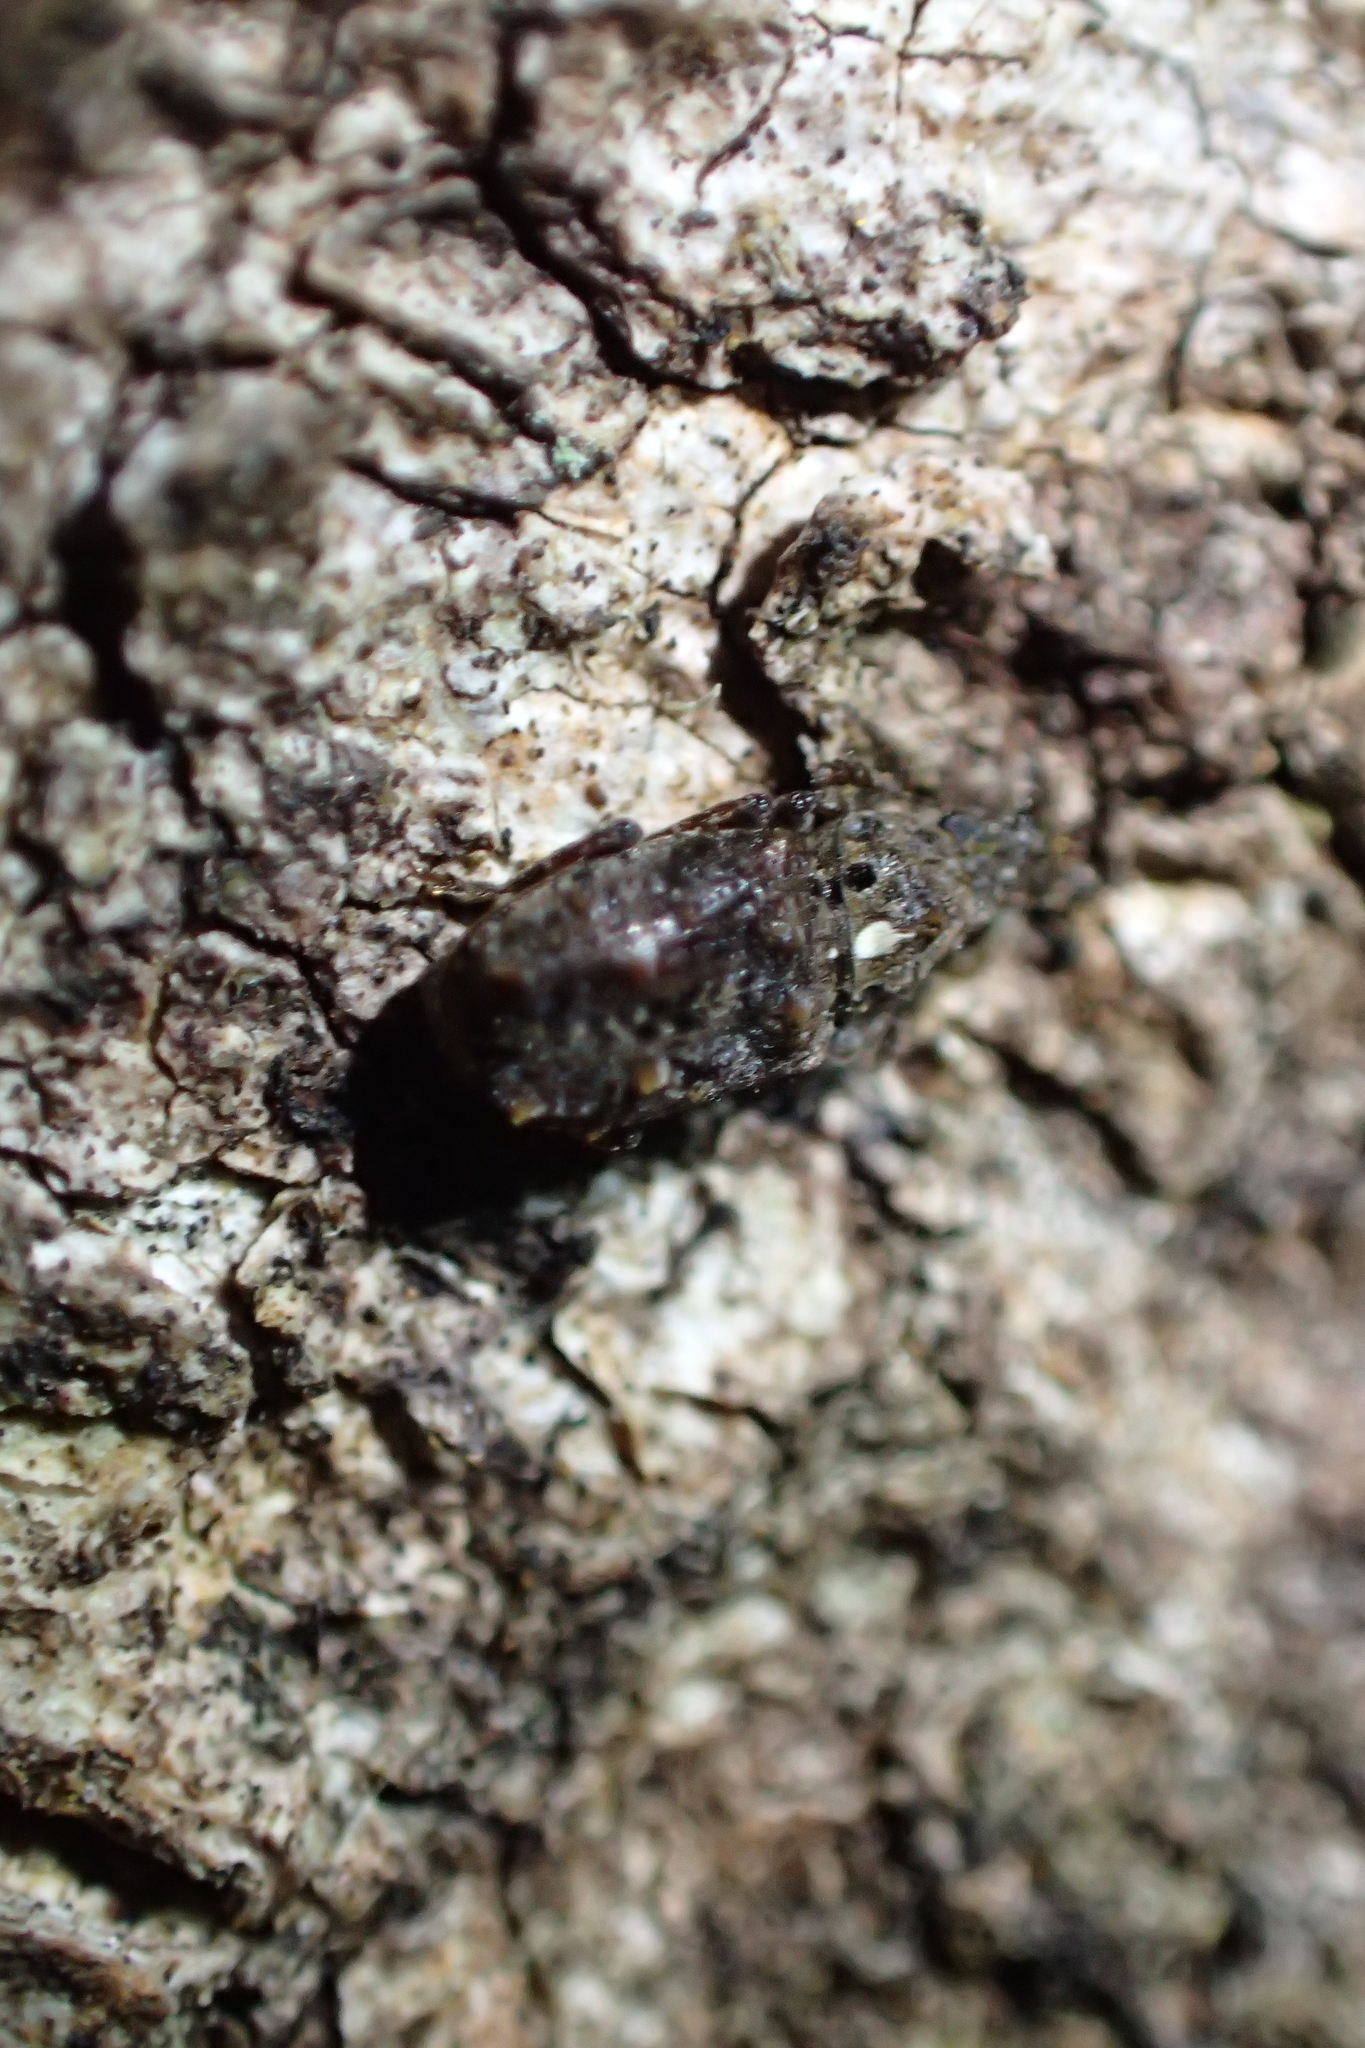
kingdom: Animalia
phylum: Arthropoda
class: Insecta
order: Coleoptera
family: Anthribidae
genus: Lophus
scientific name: Lophus
